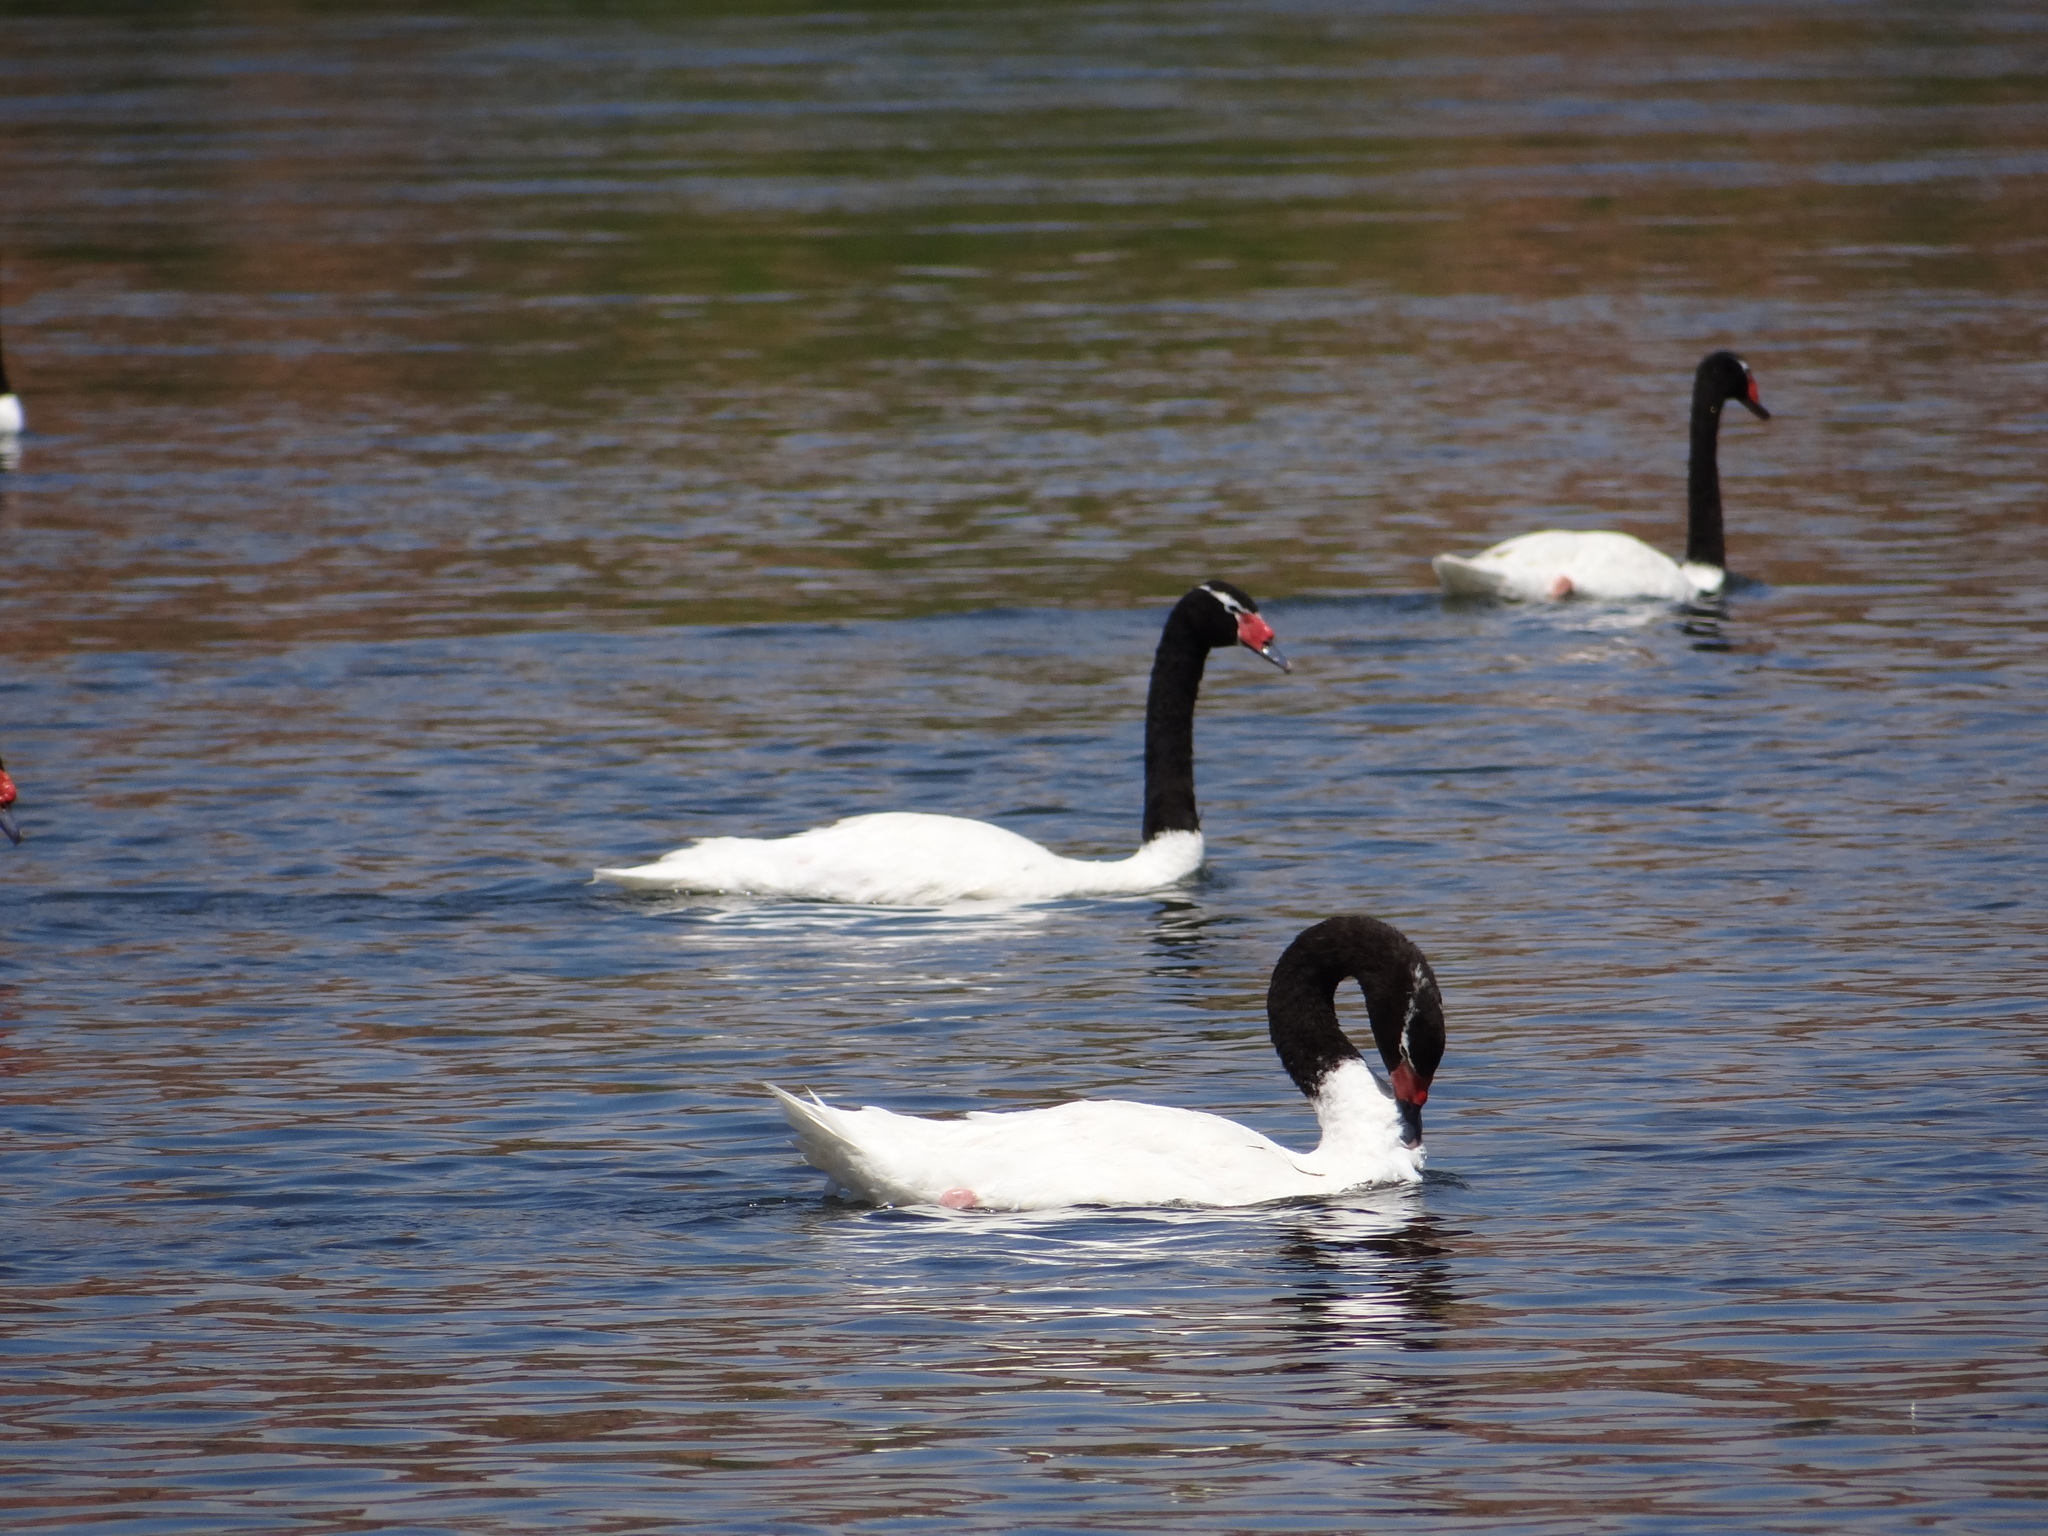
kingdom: Animalia
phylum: Chordata
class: Aves
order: Anseriformes
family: Anatidae
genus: Cygnus
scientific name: Cygnus melancoryphus
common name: Black-necked swan
